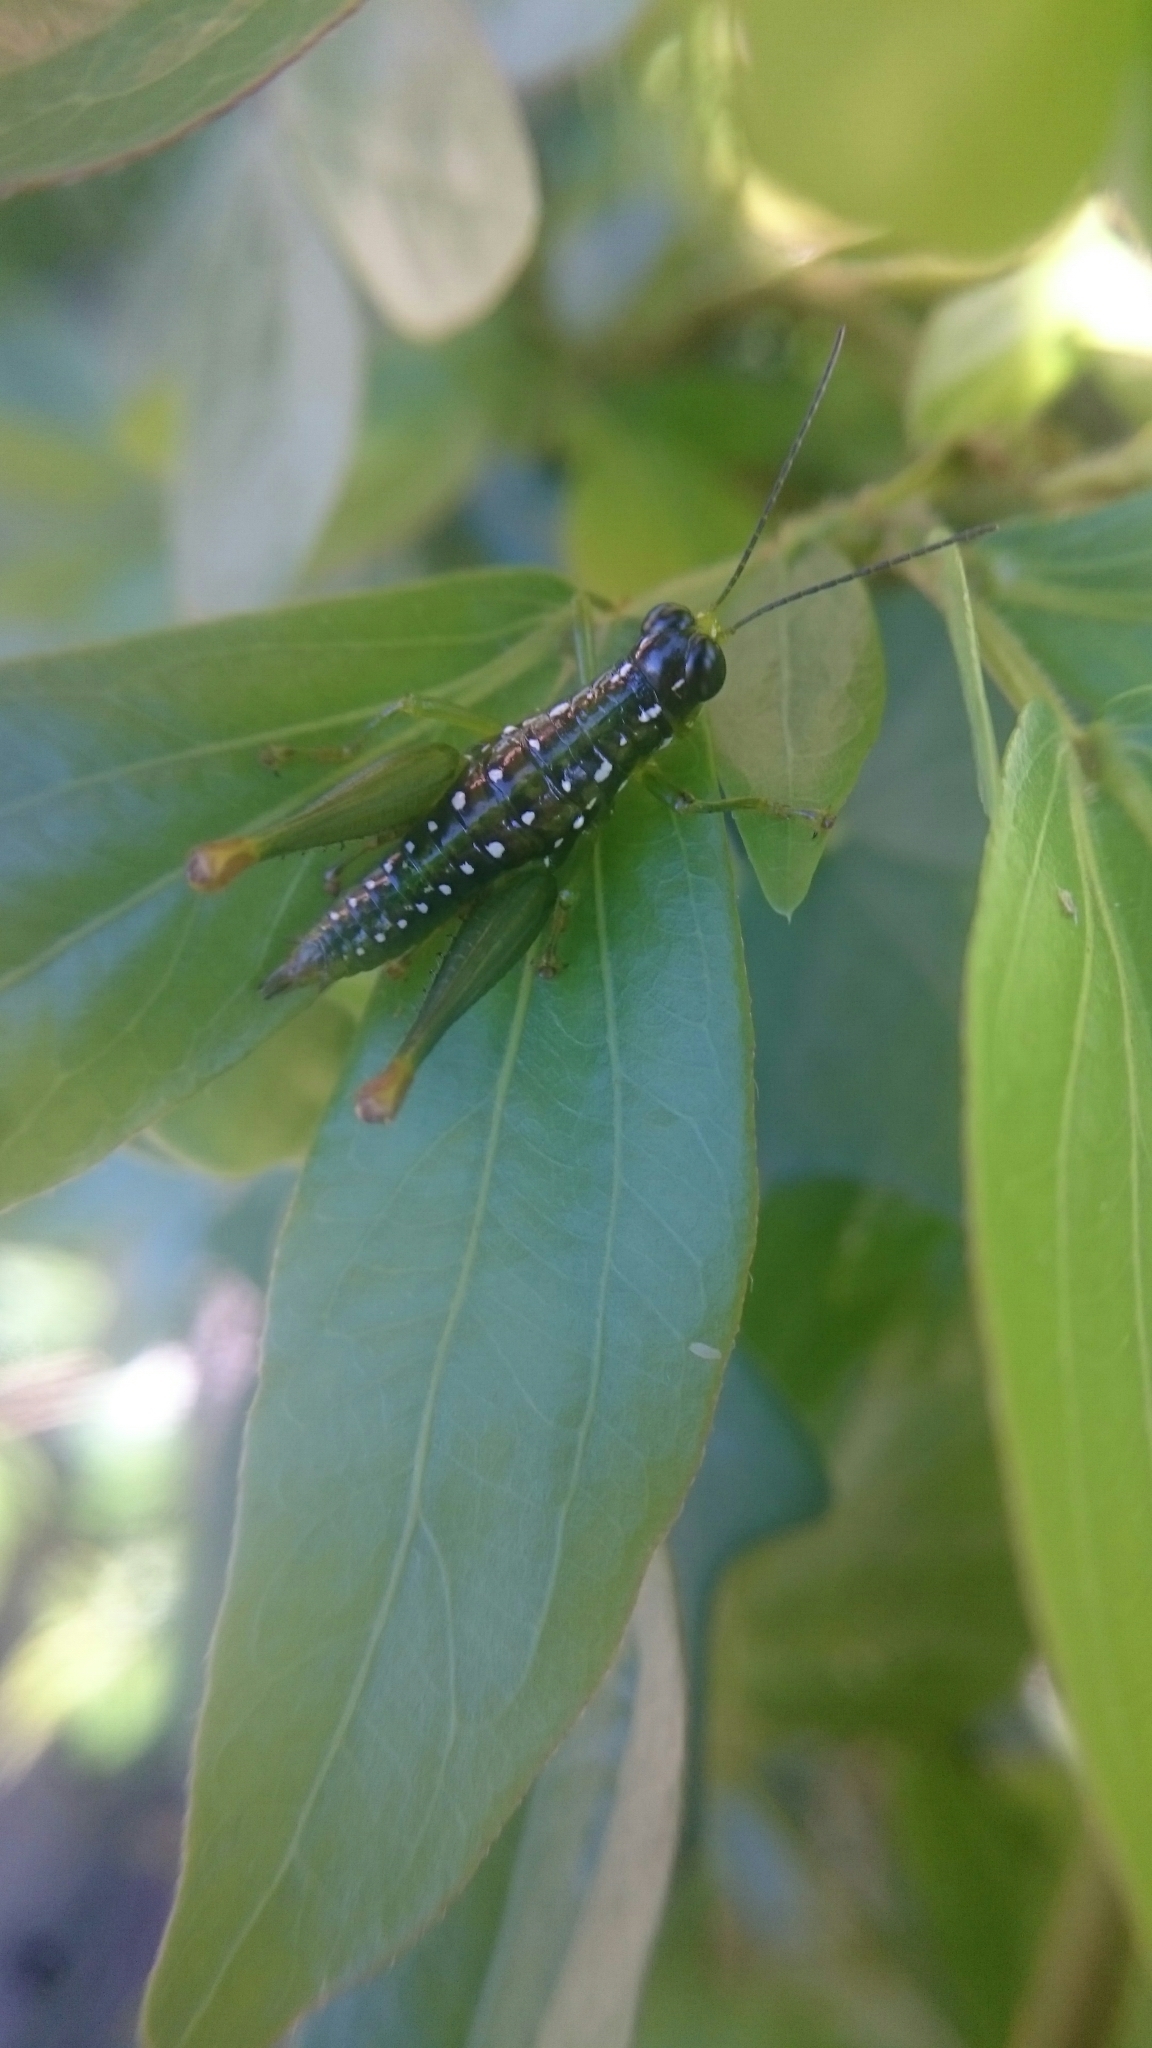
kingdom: Animalia
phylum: Arthropoda
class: Insecta
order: Orthoptera
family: Acrididae
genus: Chloropseustes
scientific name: Chloropseustes brunneus
